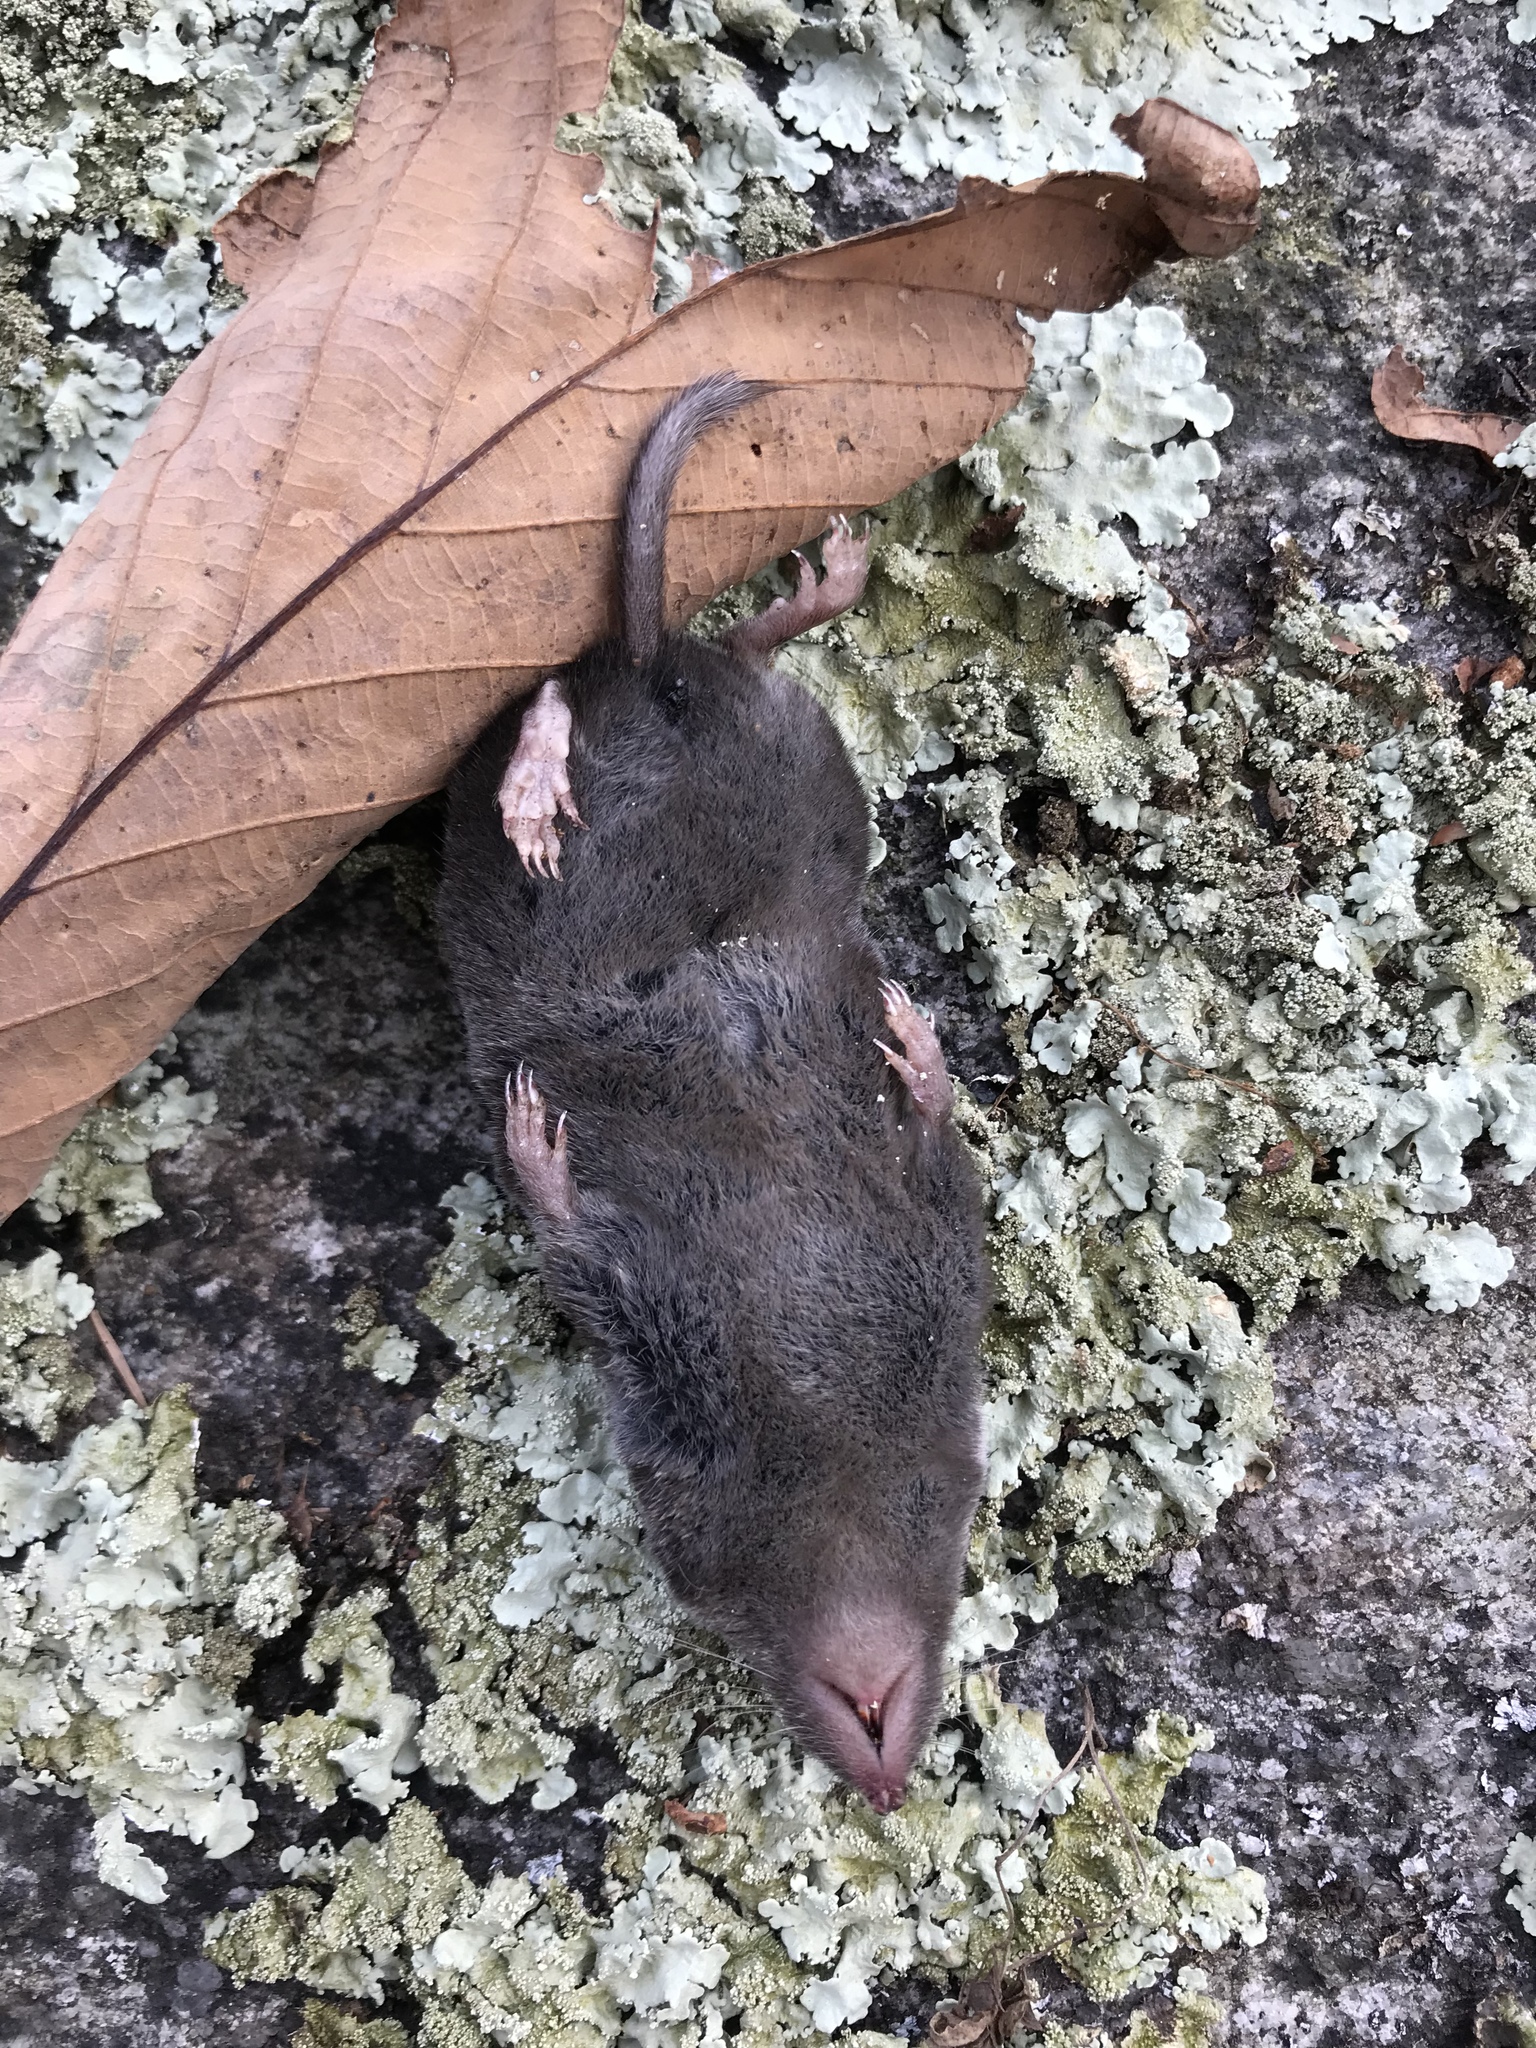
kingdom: Animalia
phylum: Chordata
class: Mammalia
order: Soricomorpha
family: Soricidae
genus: Blarina
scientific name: Blarina brevicauda
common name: Northern short-tailed shrew
